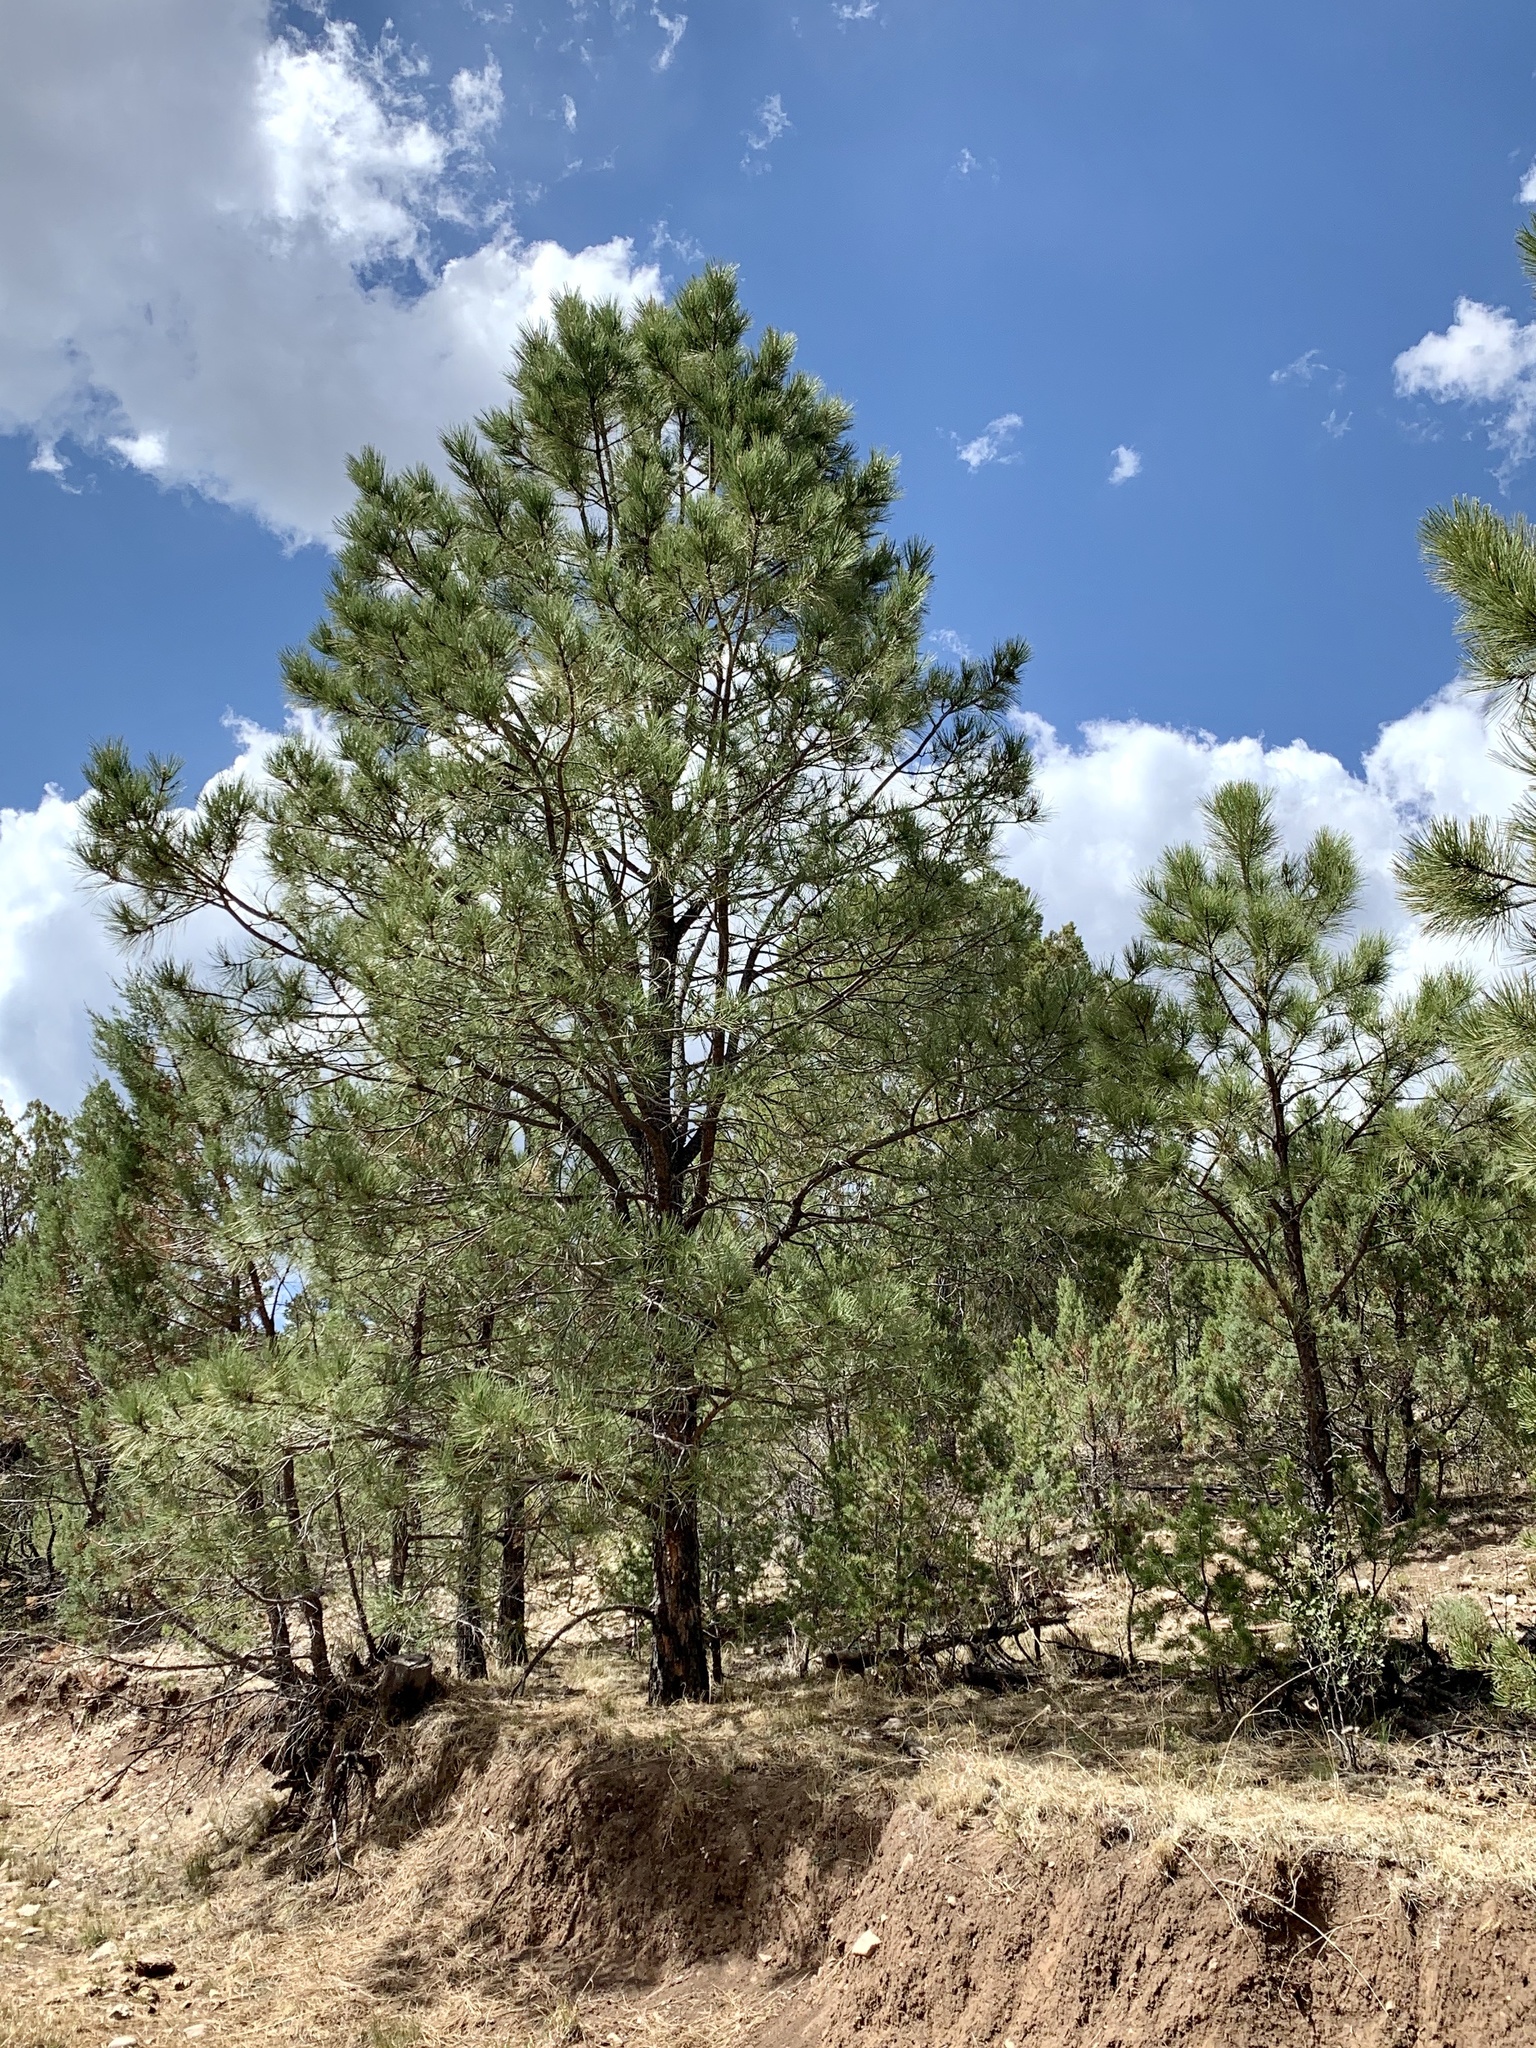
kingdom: Plantae
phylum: Tracheophyta
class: Pinopsida
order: Pinales
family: Pinaceae
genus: Pinus
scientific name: Pinus ponderosa
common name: Western yellow-pine
